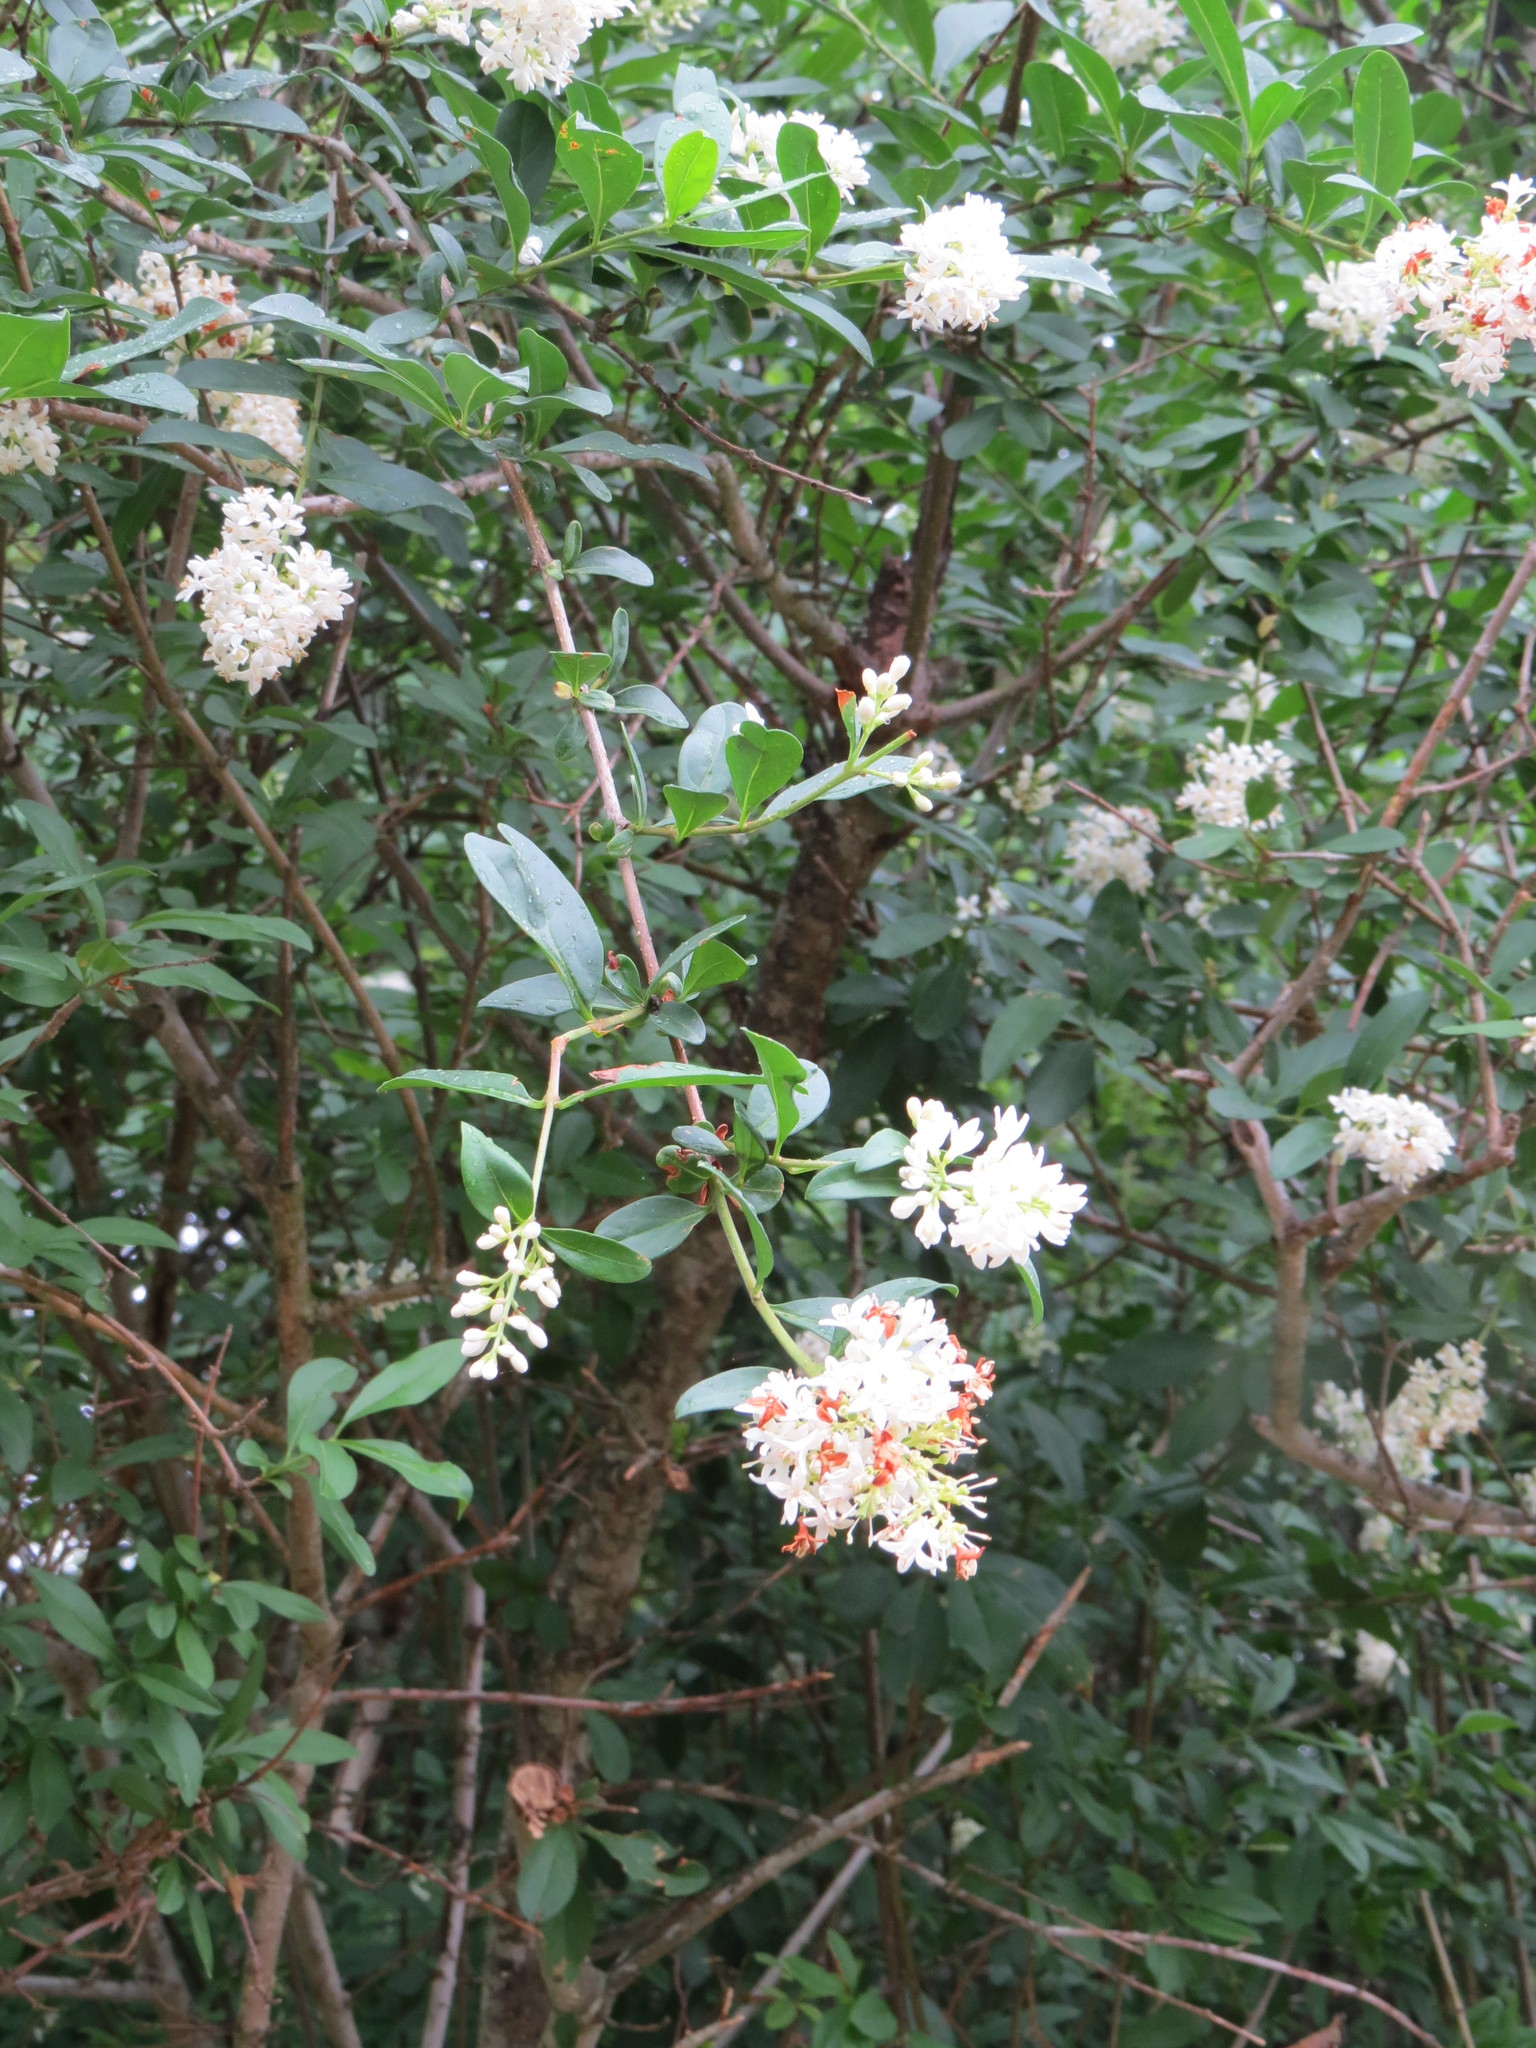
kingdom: Plantae
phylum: Tracheophyta
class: Magnoliopsida
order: Lamiales
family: Oleaceae
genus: Ligustrum
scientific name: Ligustrum vulgare
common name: Wild privet
